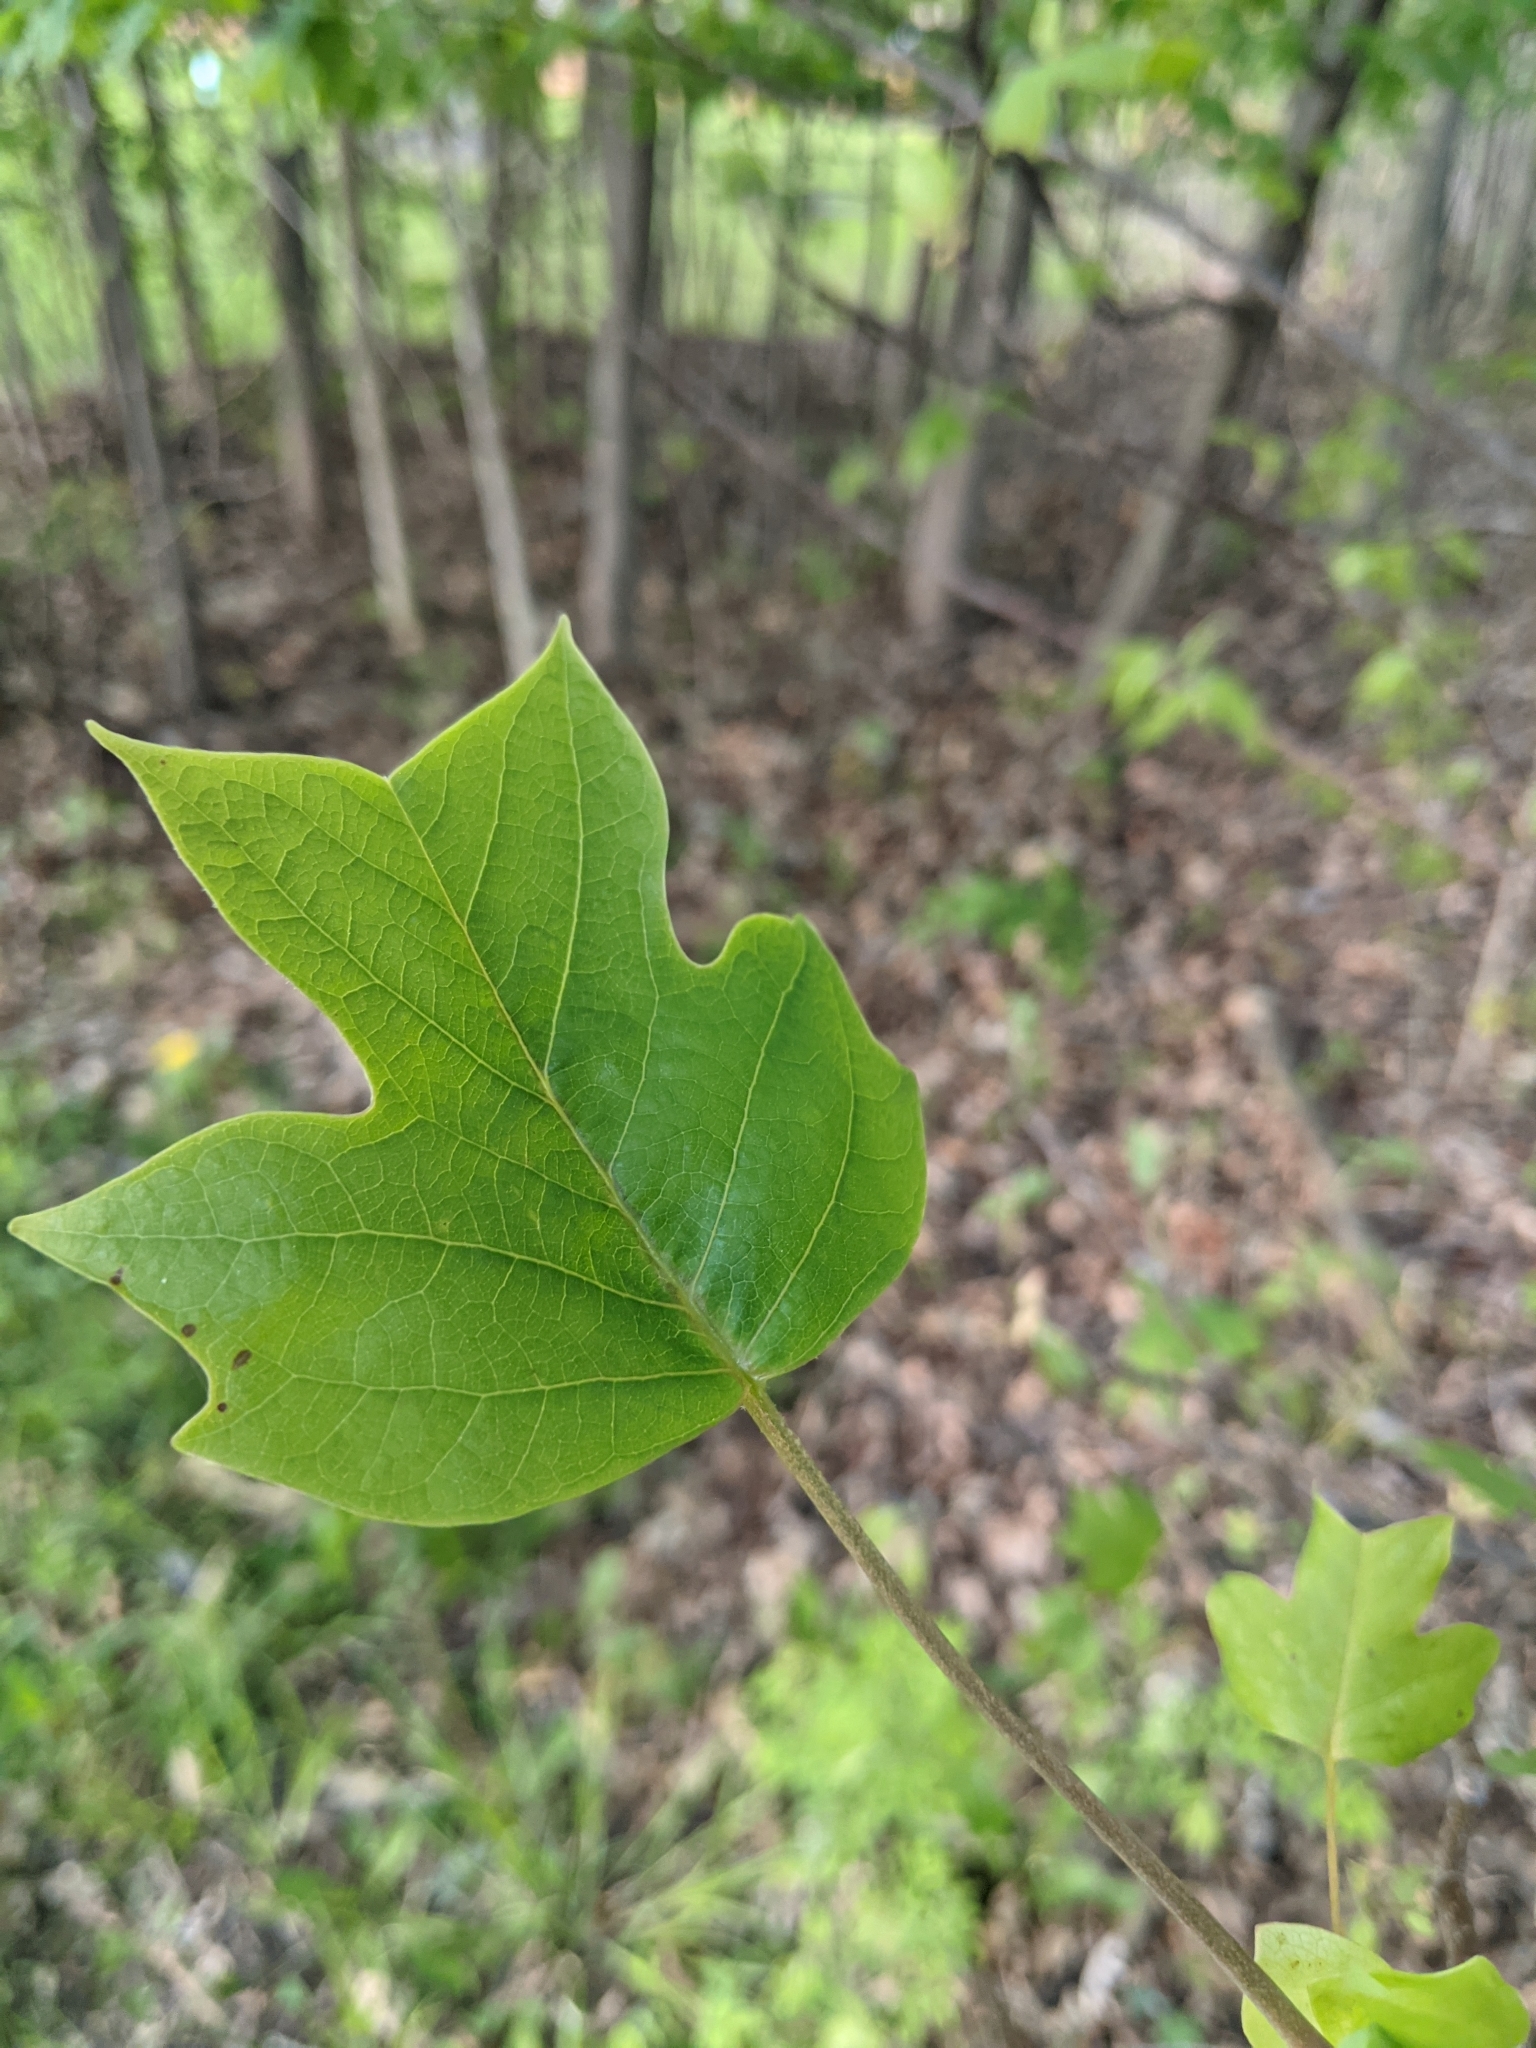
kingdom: Plantae
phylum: Tracheophyta
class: Magnoliopsida
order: Magnoliales
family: Magnoliaceae
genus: Liriodendron
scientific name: Liriodendron tulipifera
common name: Tulip tree
